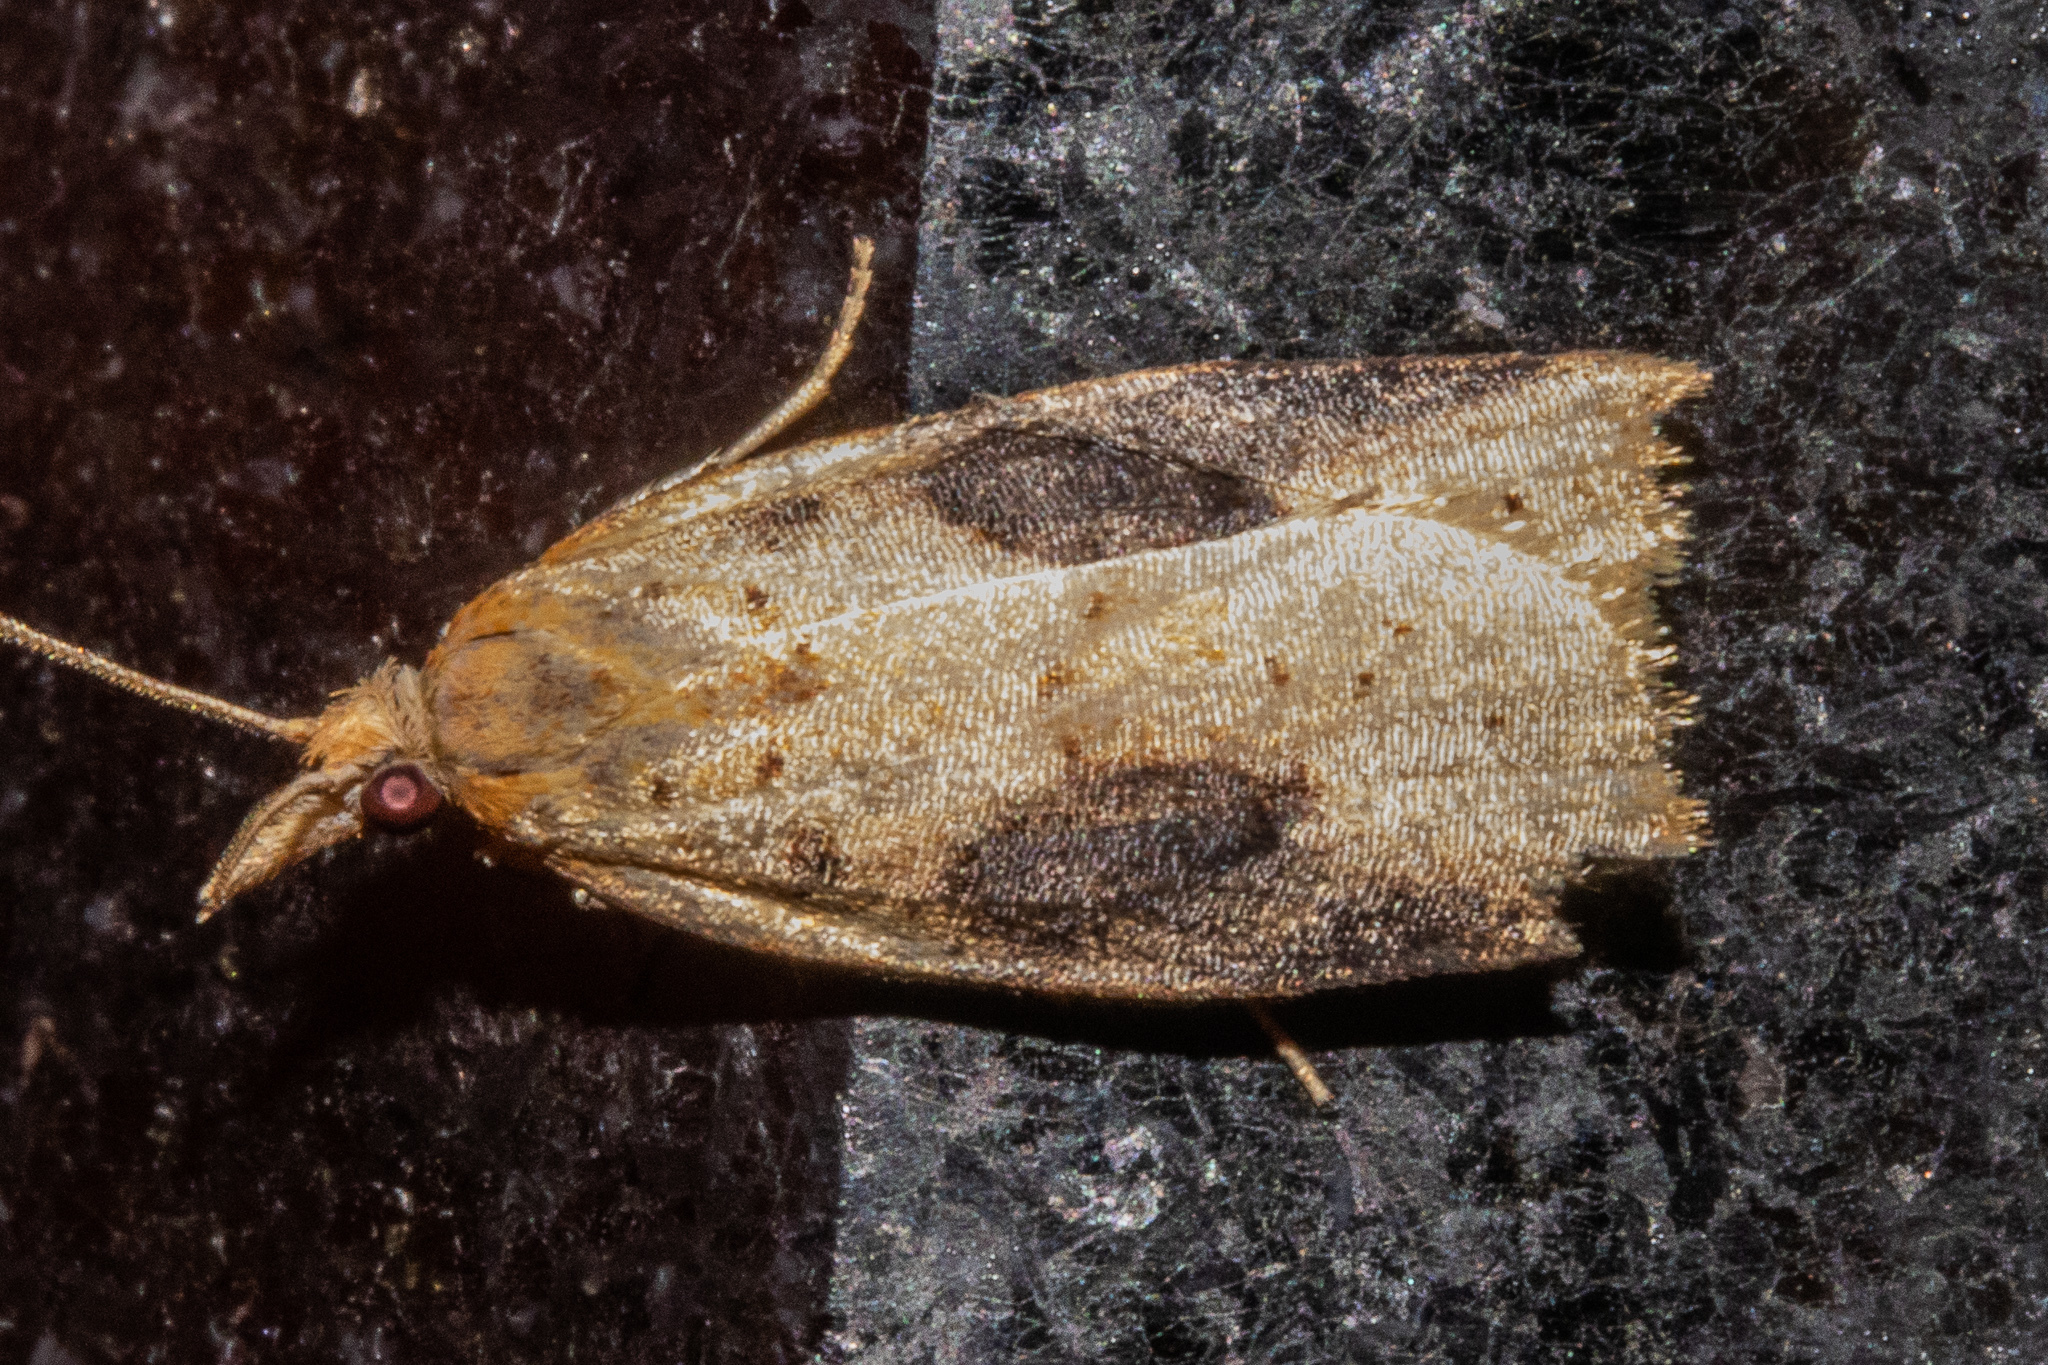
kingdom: Animalia
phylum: Arthropoda
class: Insecta
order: Lepidoptera
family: Tortricidae
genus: Apoctena
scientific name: Apoctena conditana
